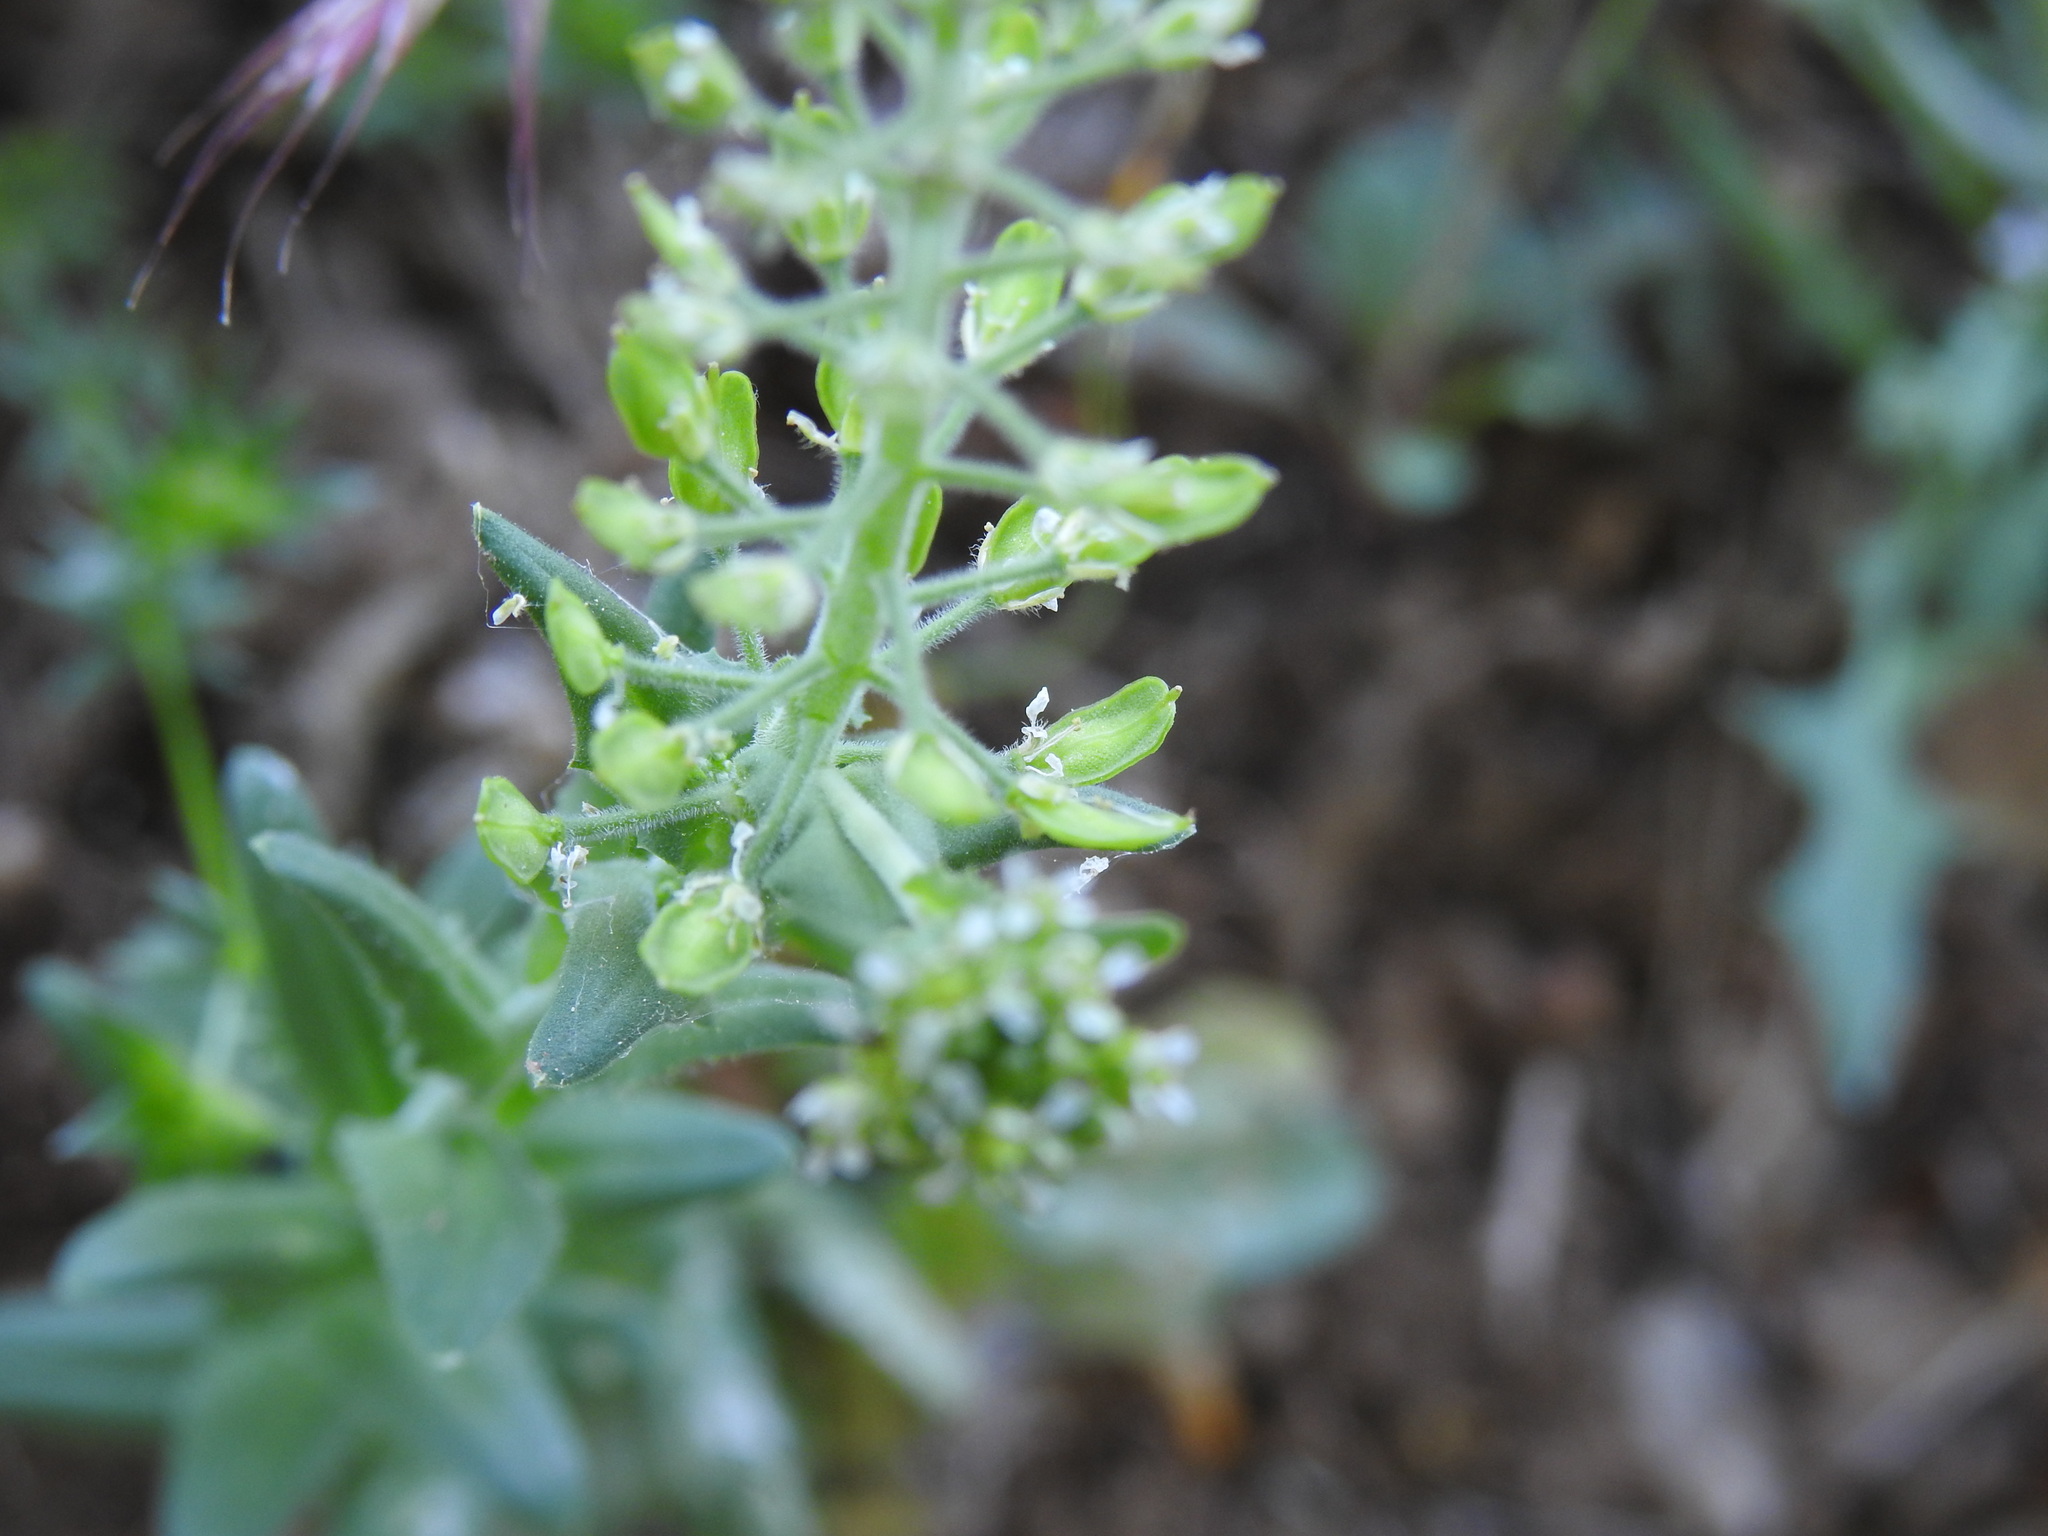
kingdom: Plantae
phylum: Tracheophyta
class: Magnoliopsida
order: Brassicales
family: Brassicaceae
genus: Lepidium
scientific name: Lepidium campestre
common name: Field pepperwort
